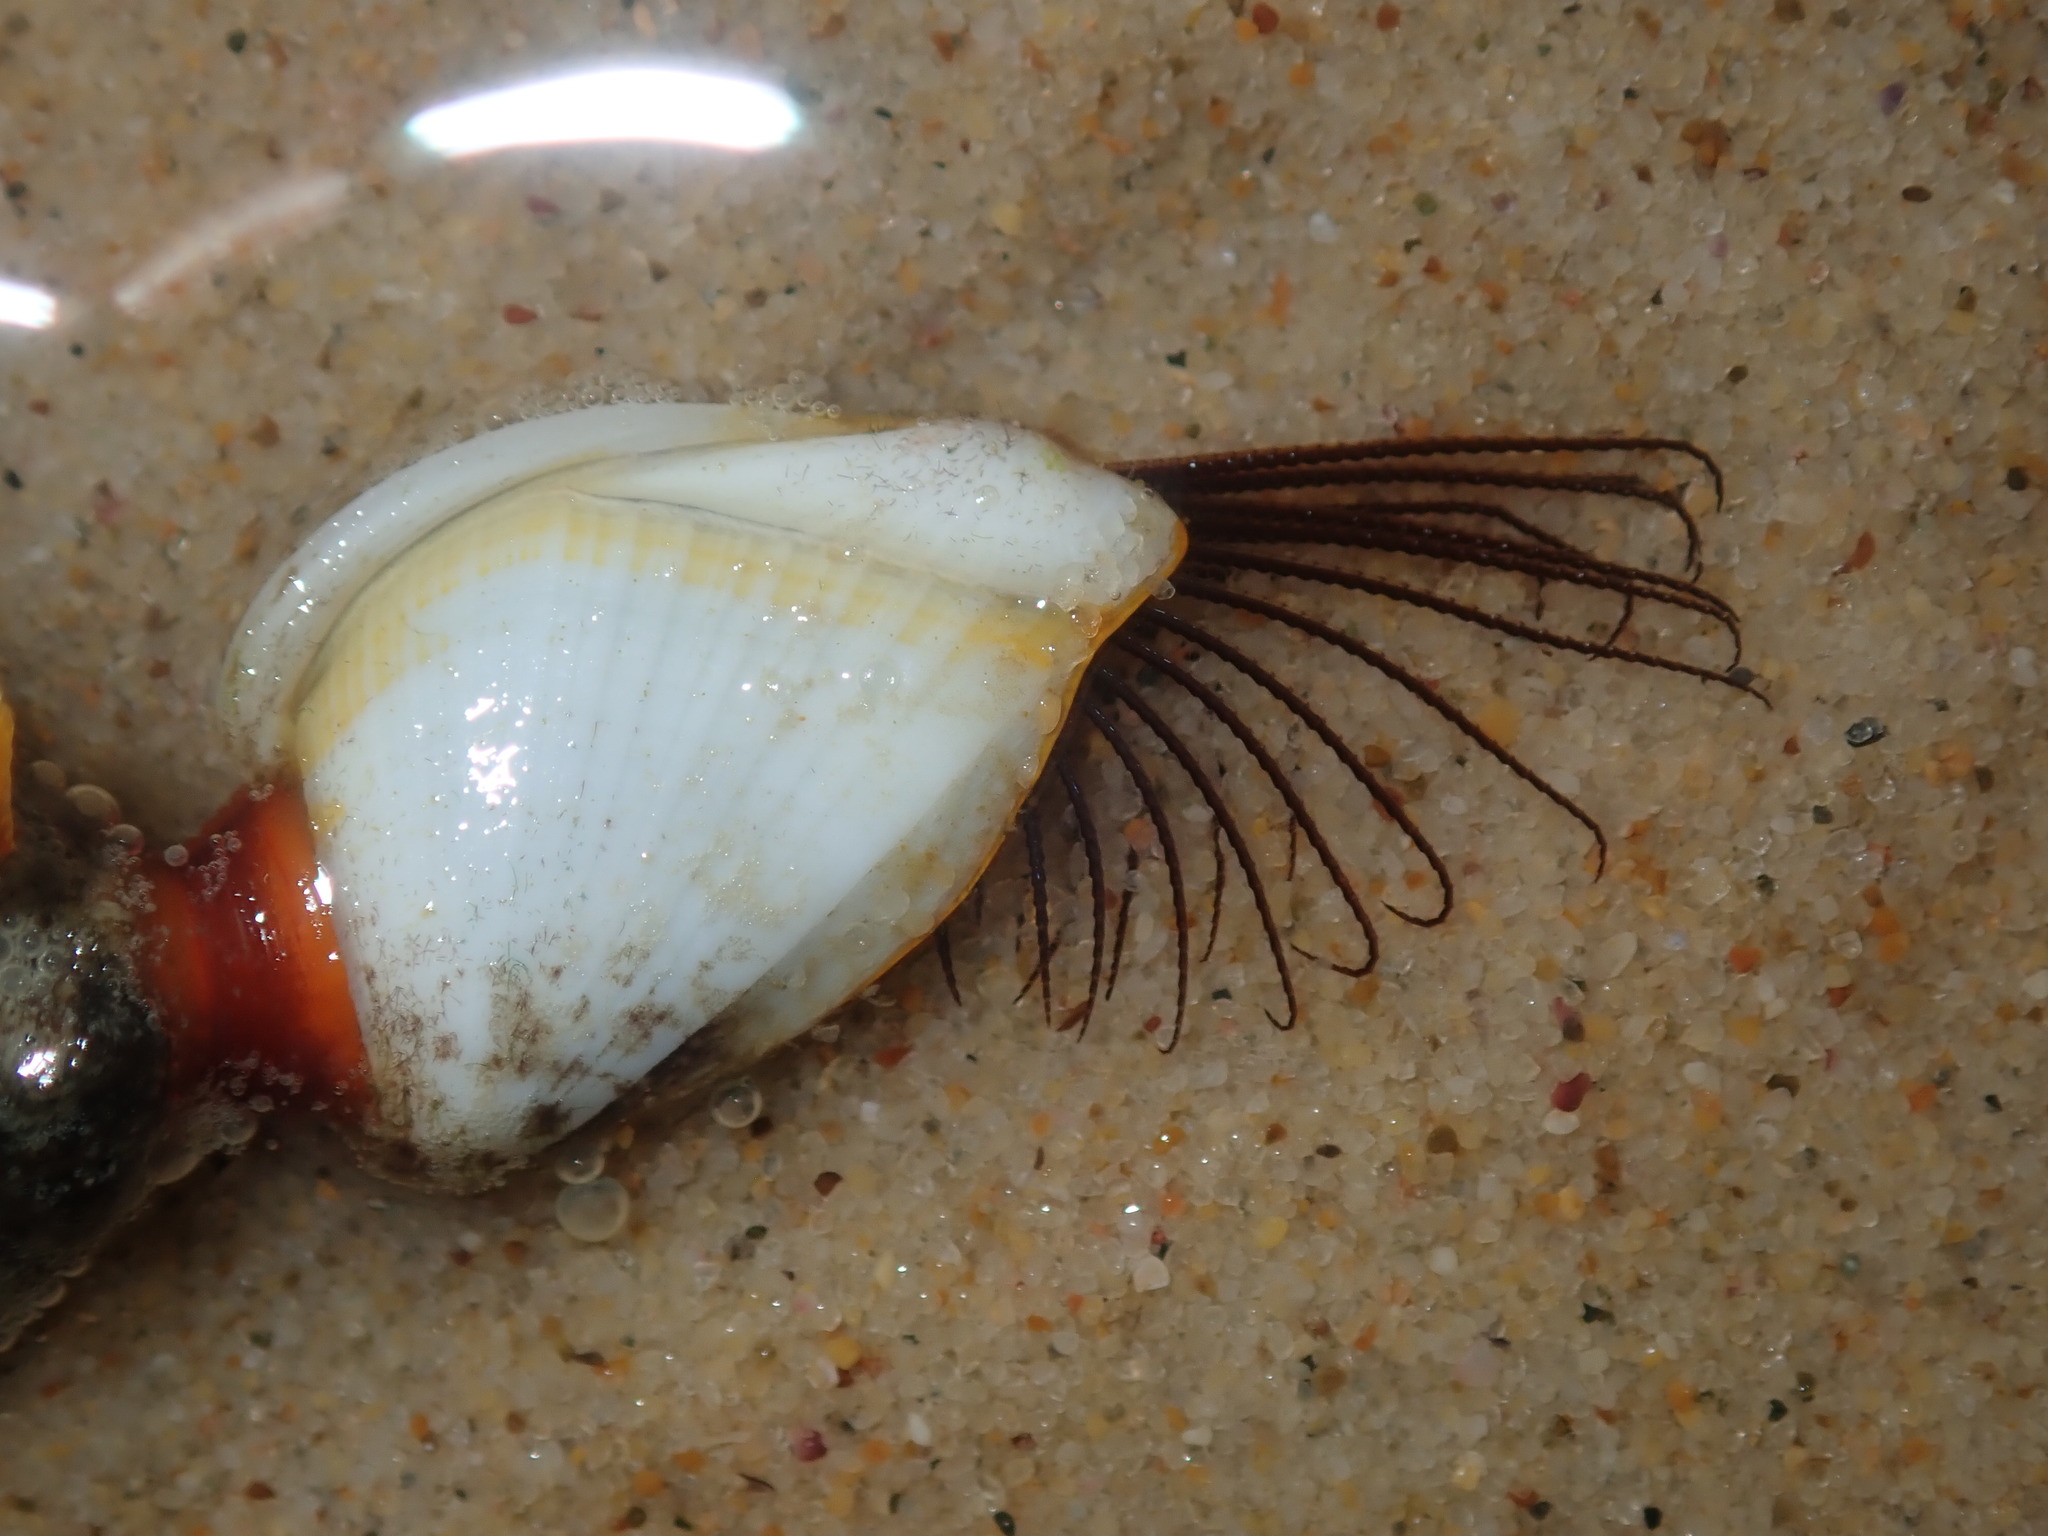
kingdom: Animalia
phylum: Arthropoda
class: Maxillopoda
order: Pedunculata
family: Lepadidae
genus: Lepas
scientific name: Lepas anserifera
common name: Goose barnacle
